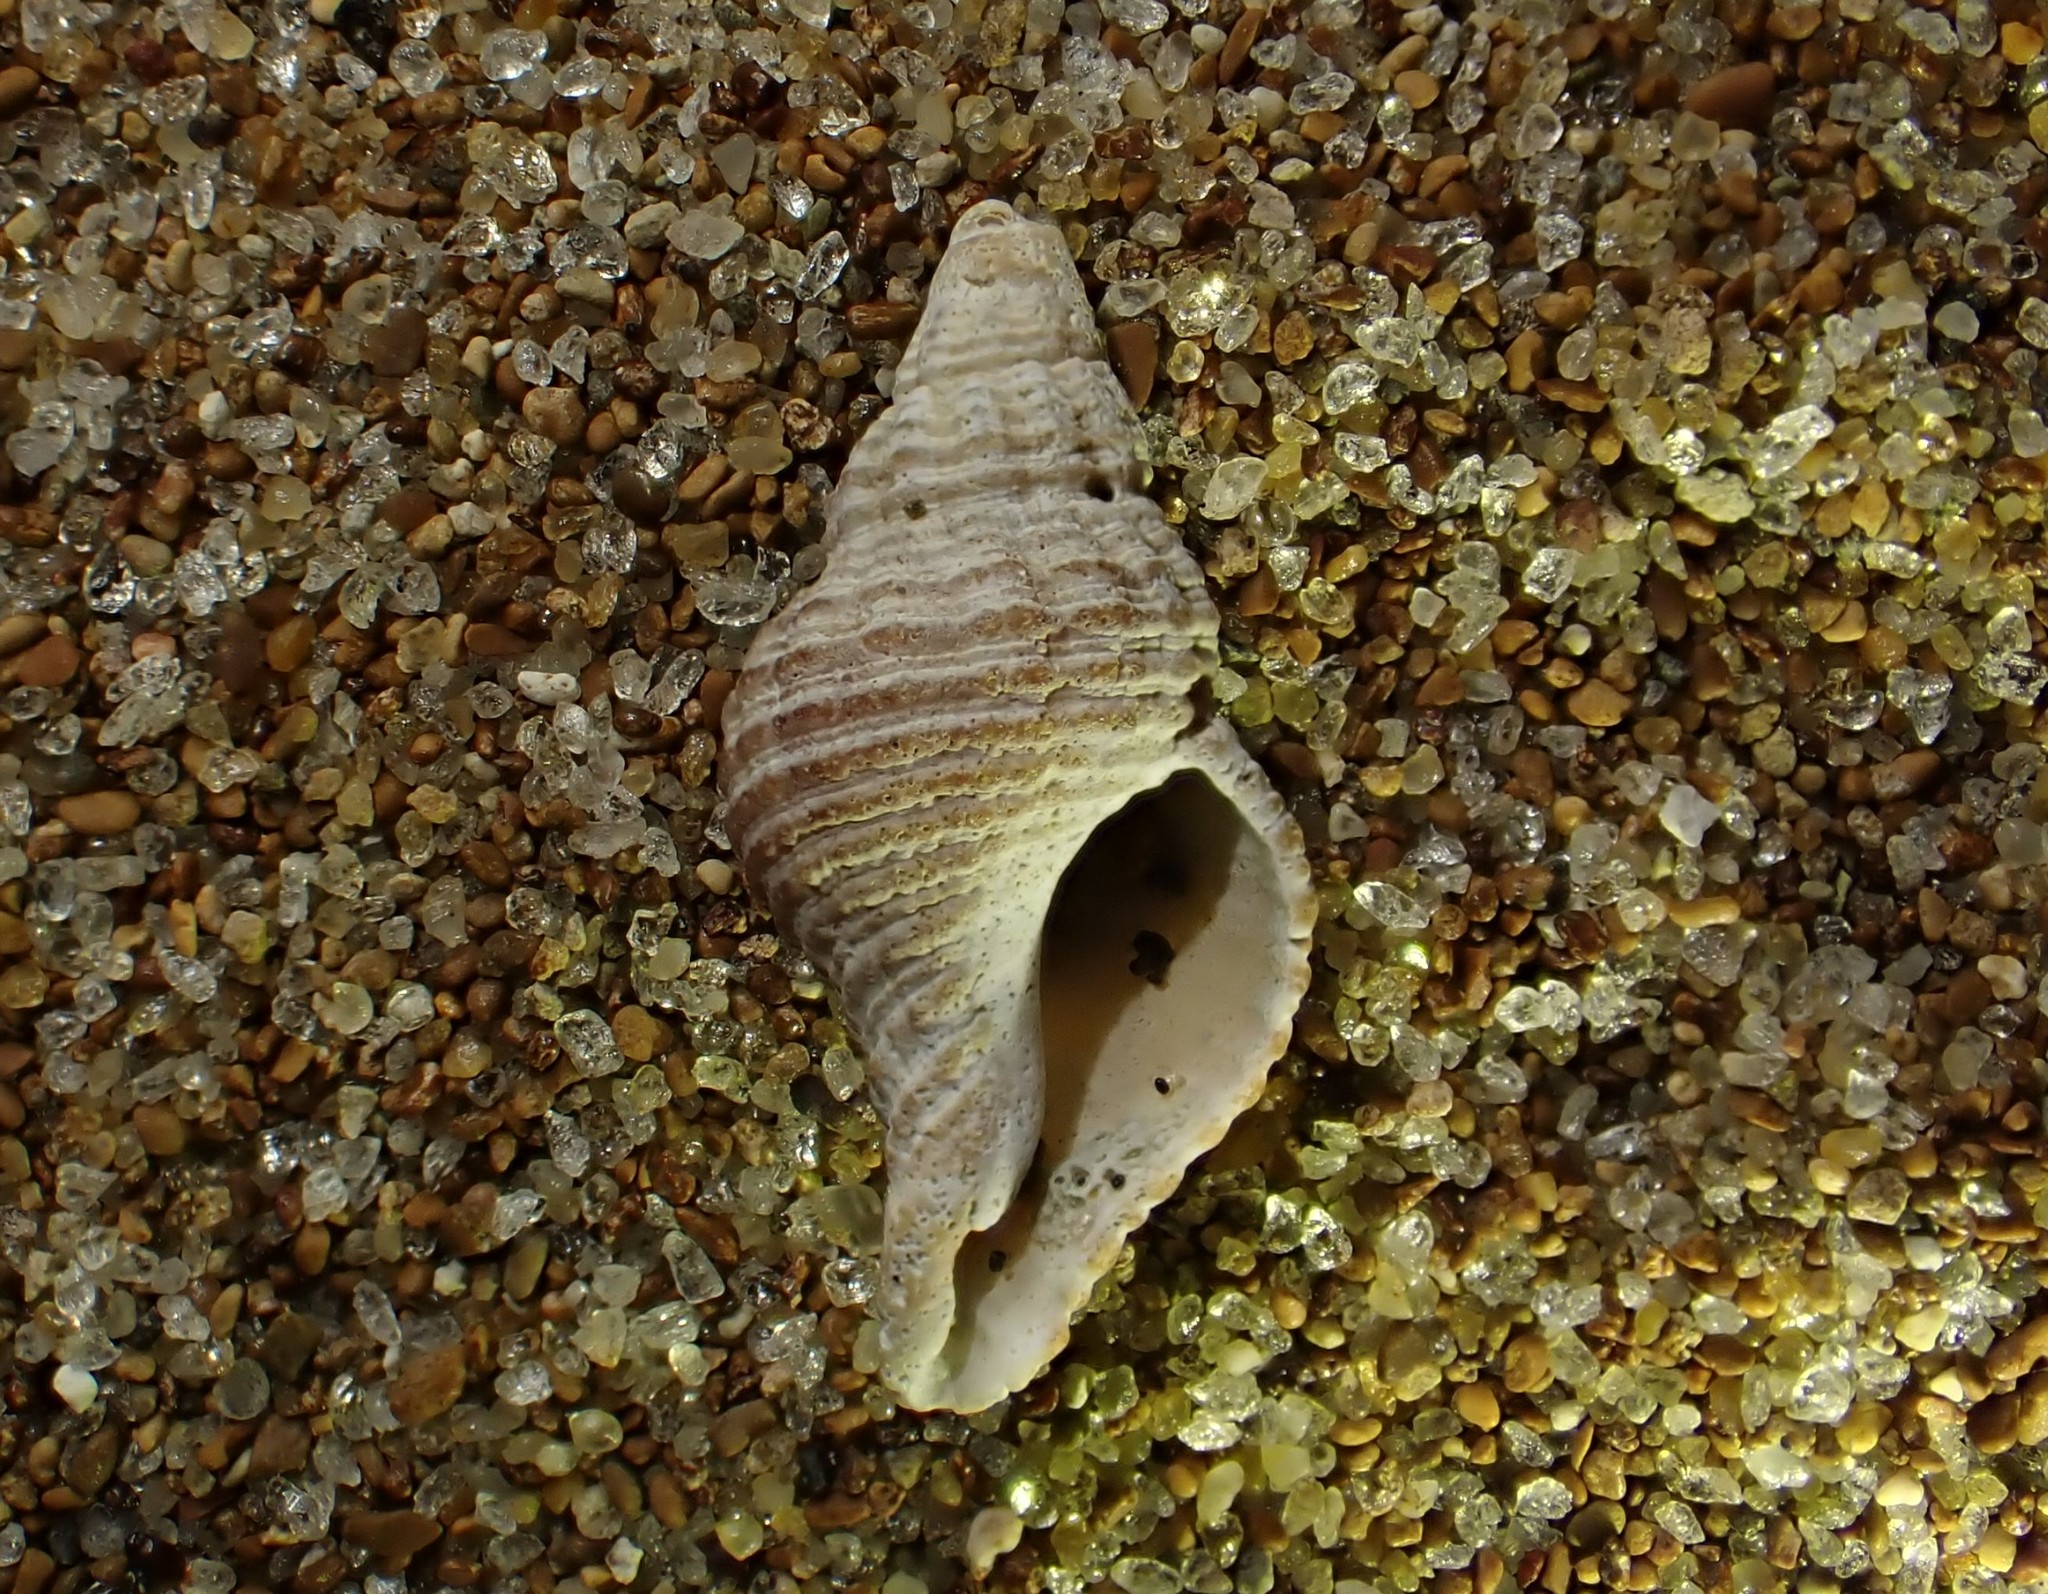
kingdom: Animalia
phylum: Mollusca
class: Gastropoda
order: Neogastropoda
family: Austrosiphonidae
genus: Penion
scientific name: Penion sulcatus
